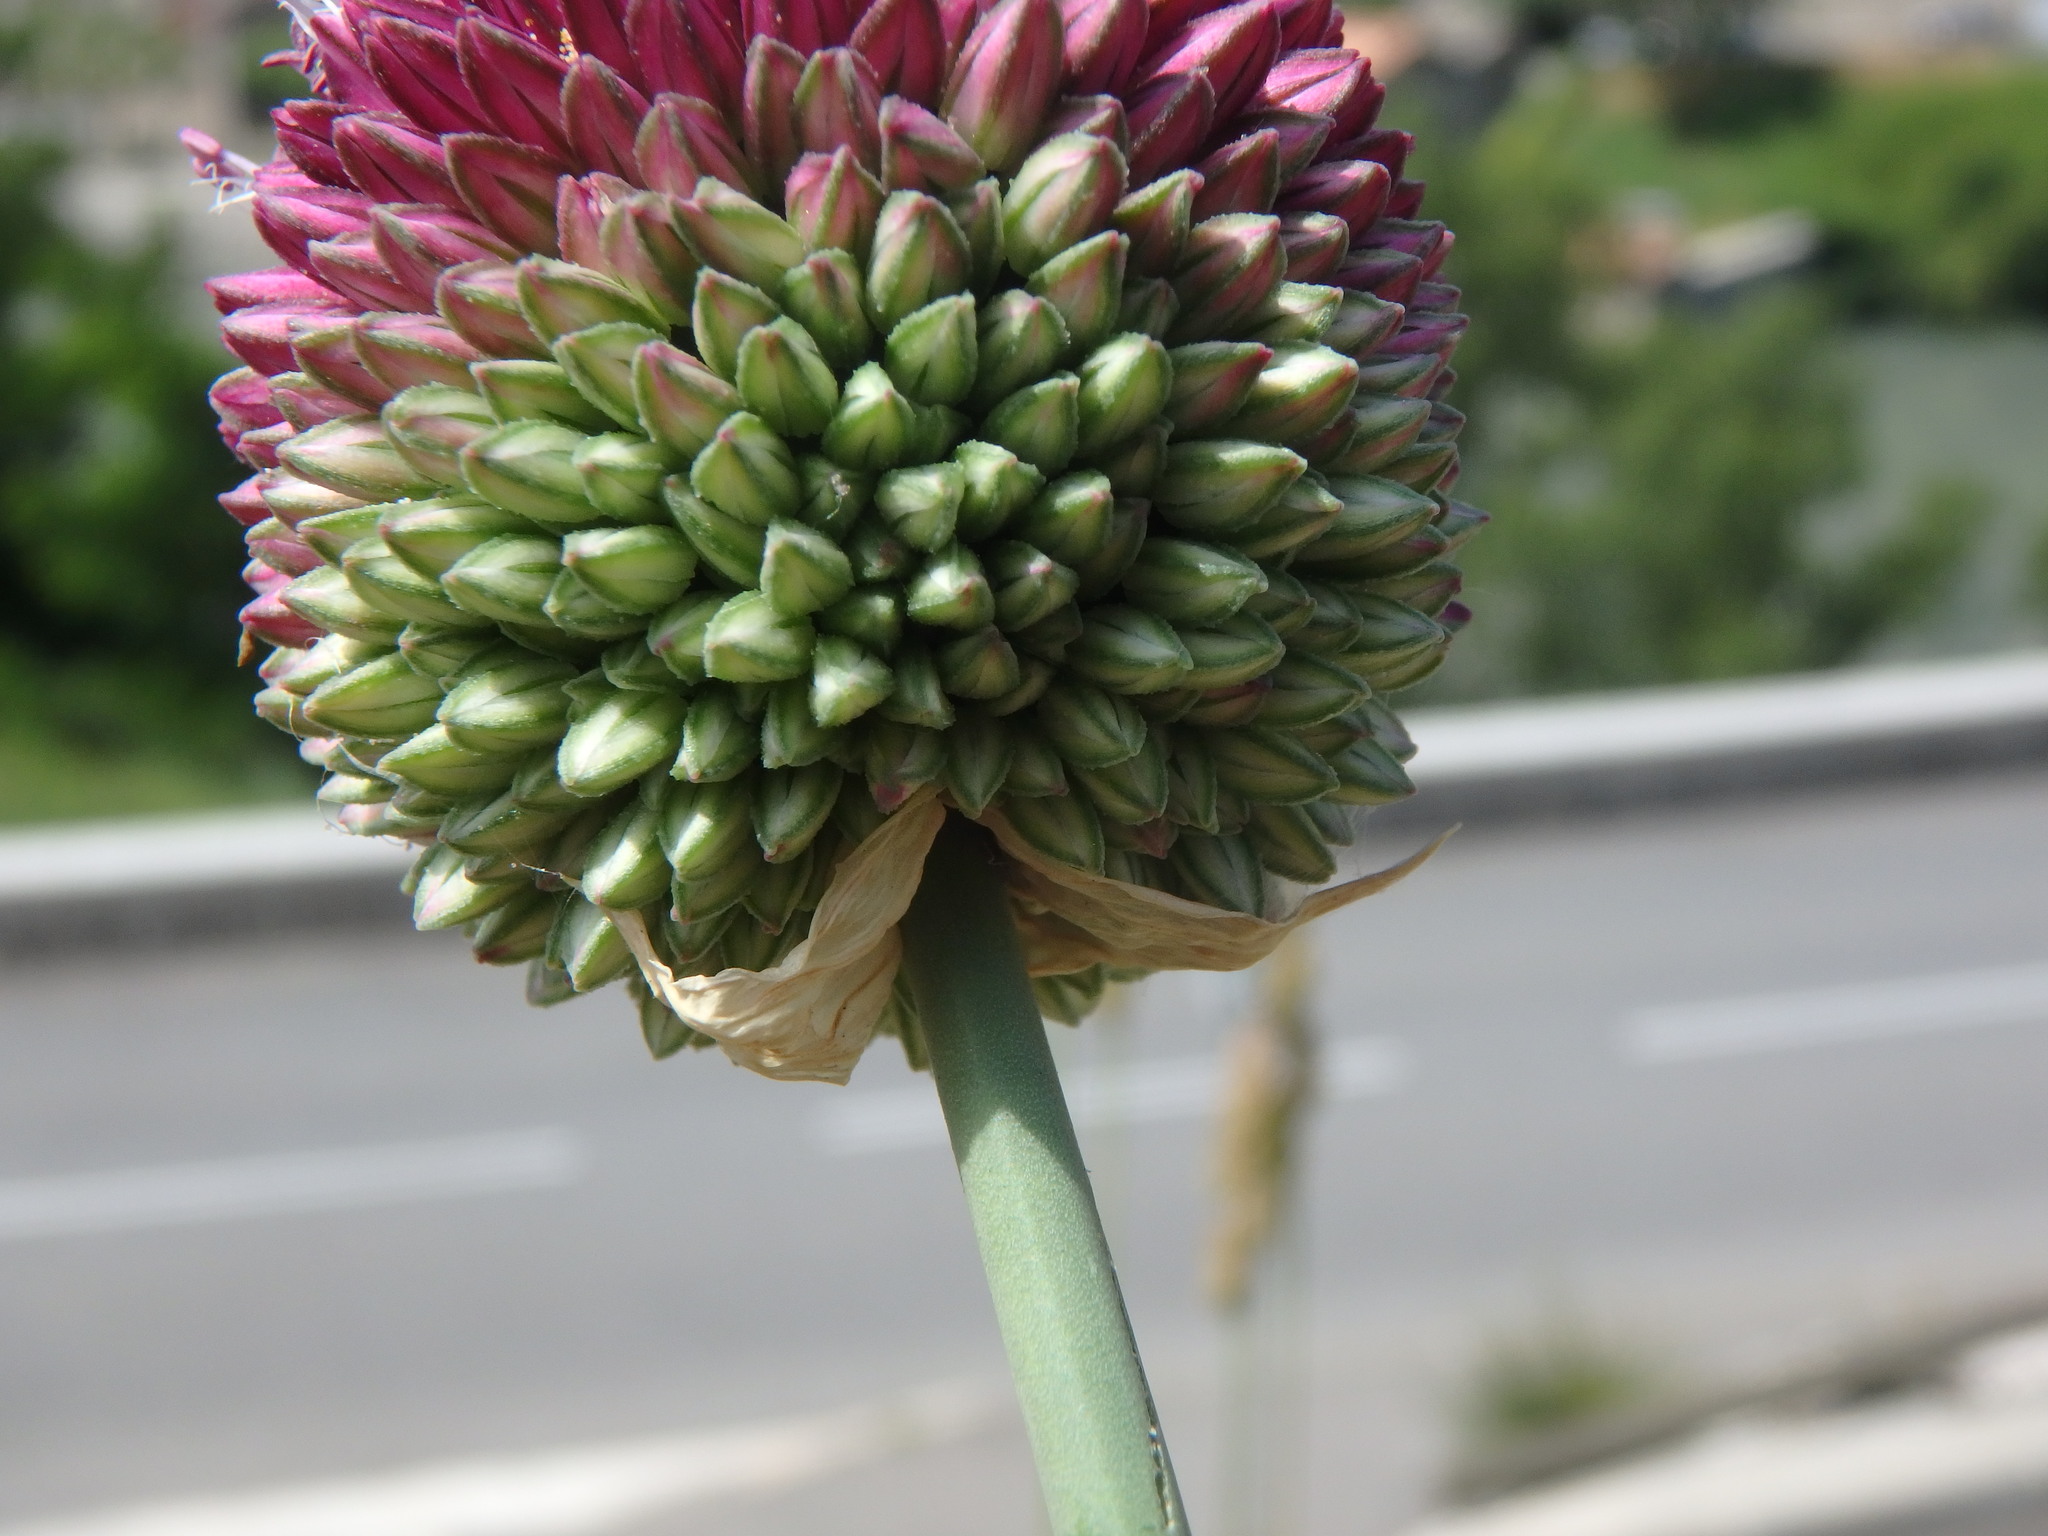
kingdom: Plantae
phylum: Tracheophyta
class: Liliopsida
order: Asparagales
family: Amaryllidaceae
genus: Allium
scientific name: Allium sphaerocephalon
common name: Round-headed leek
